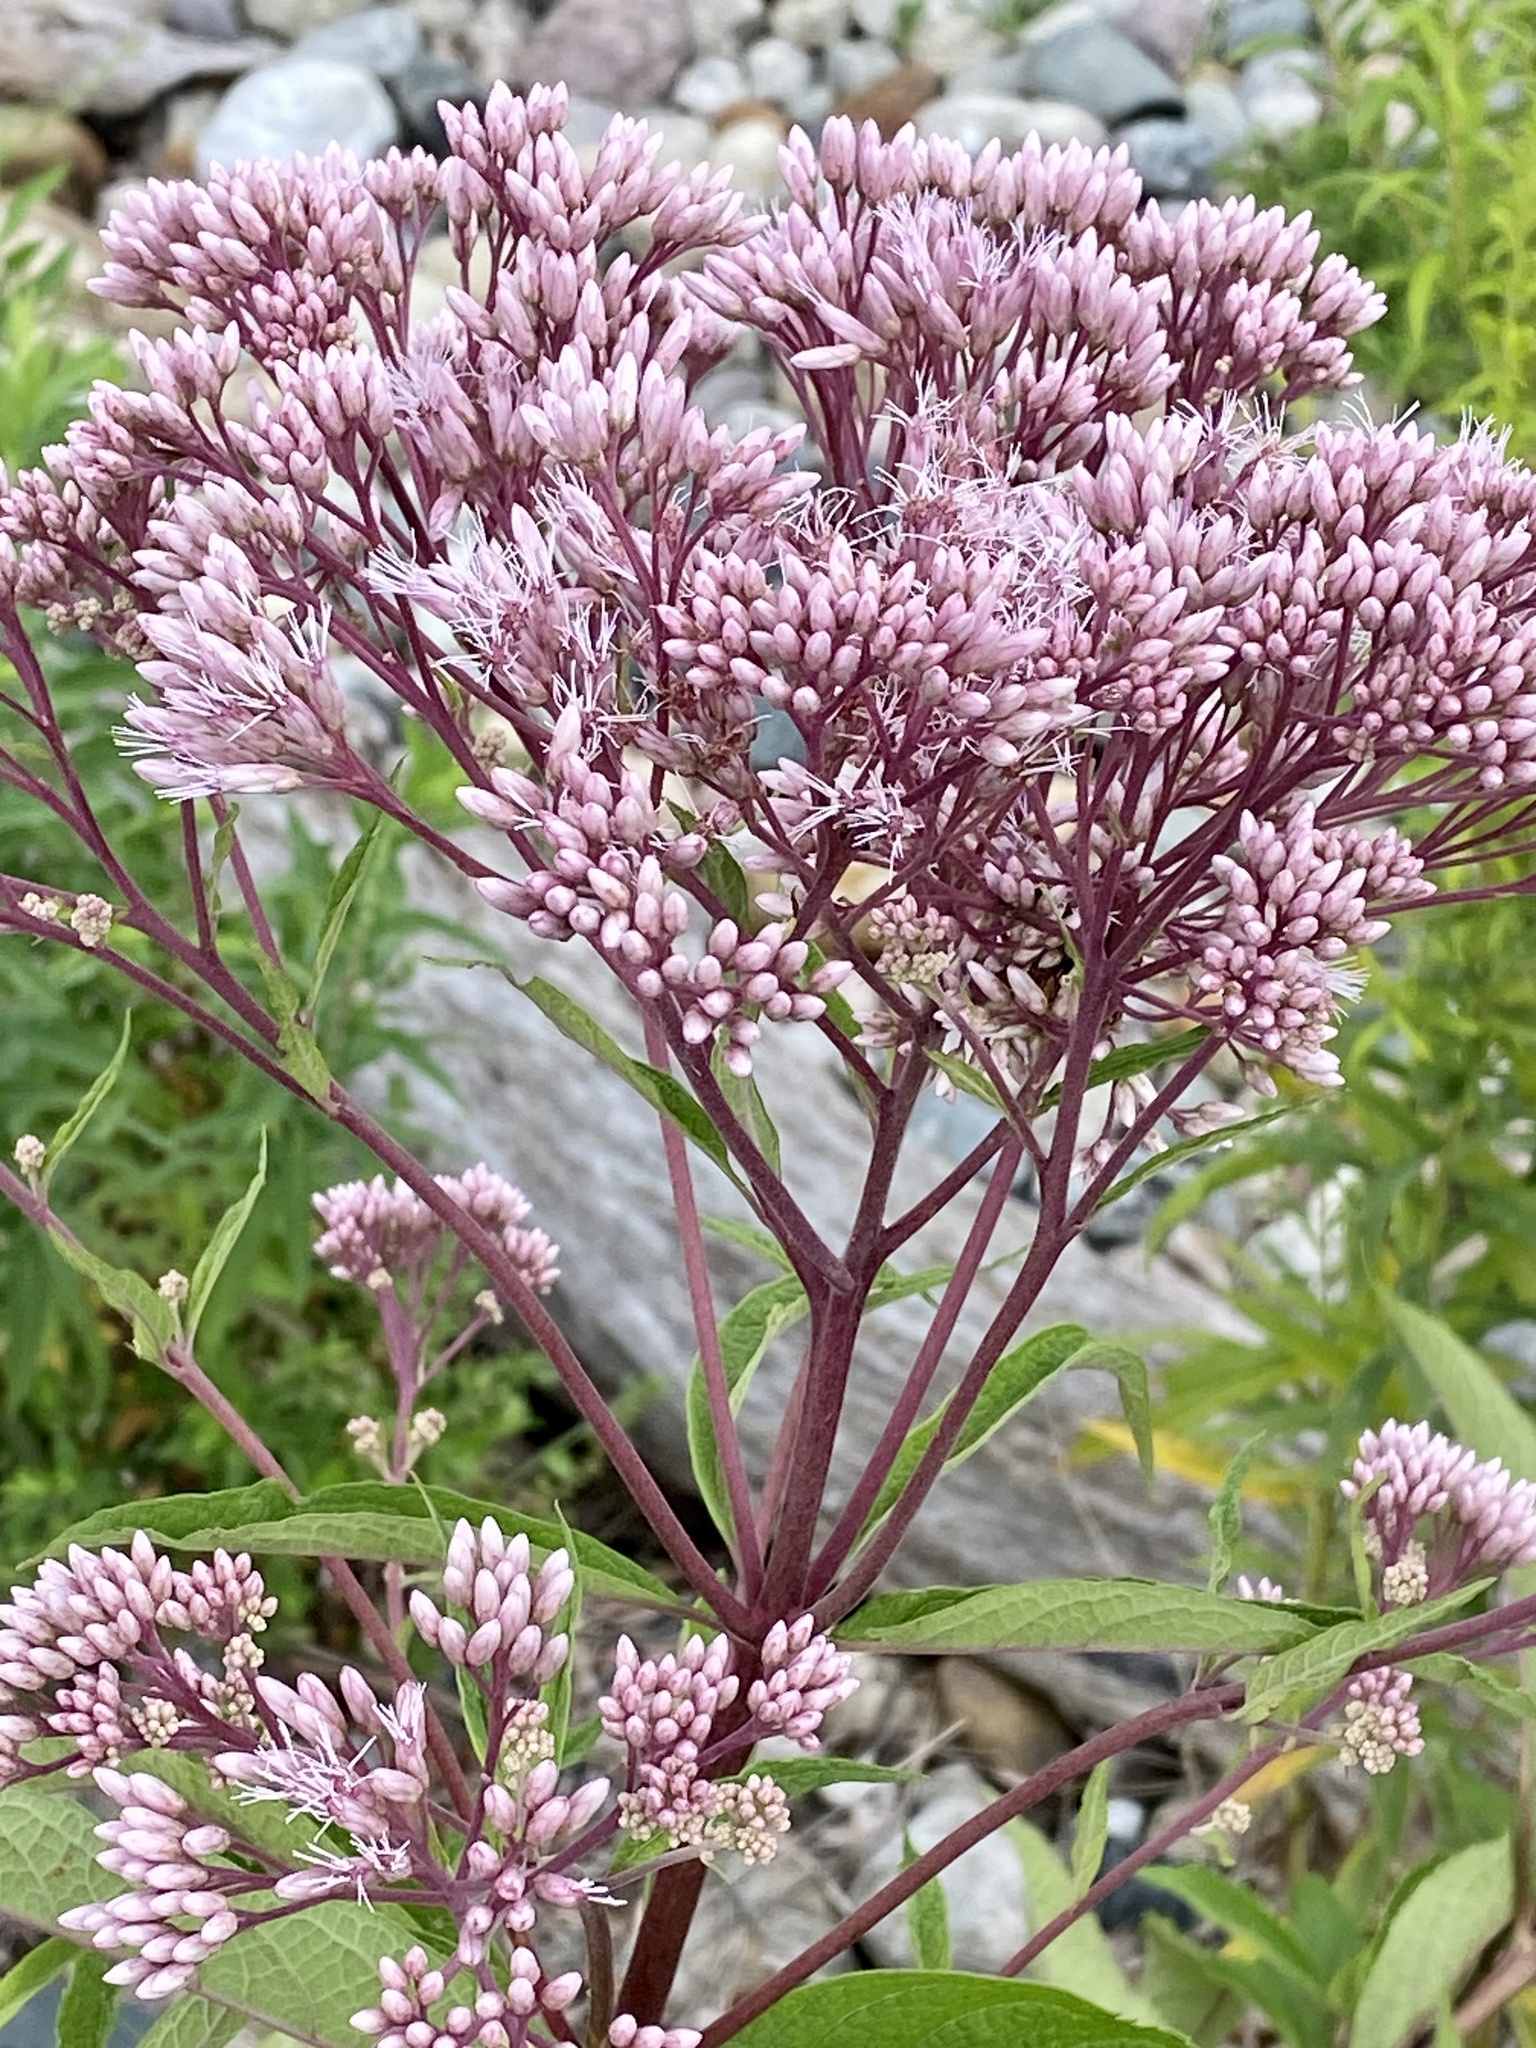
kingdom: Plantae
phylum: Tracheophyta
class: Magnoliopsida
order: Asterales
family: Asteraceae
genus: Eutrochium
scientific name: Eutrochium maculatum
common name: Spotted joe pye weed
